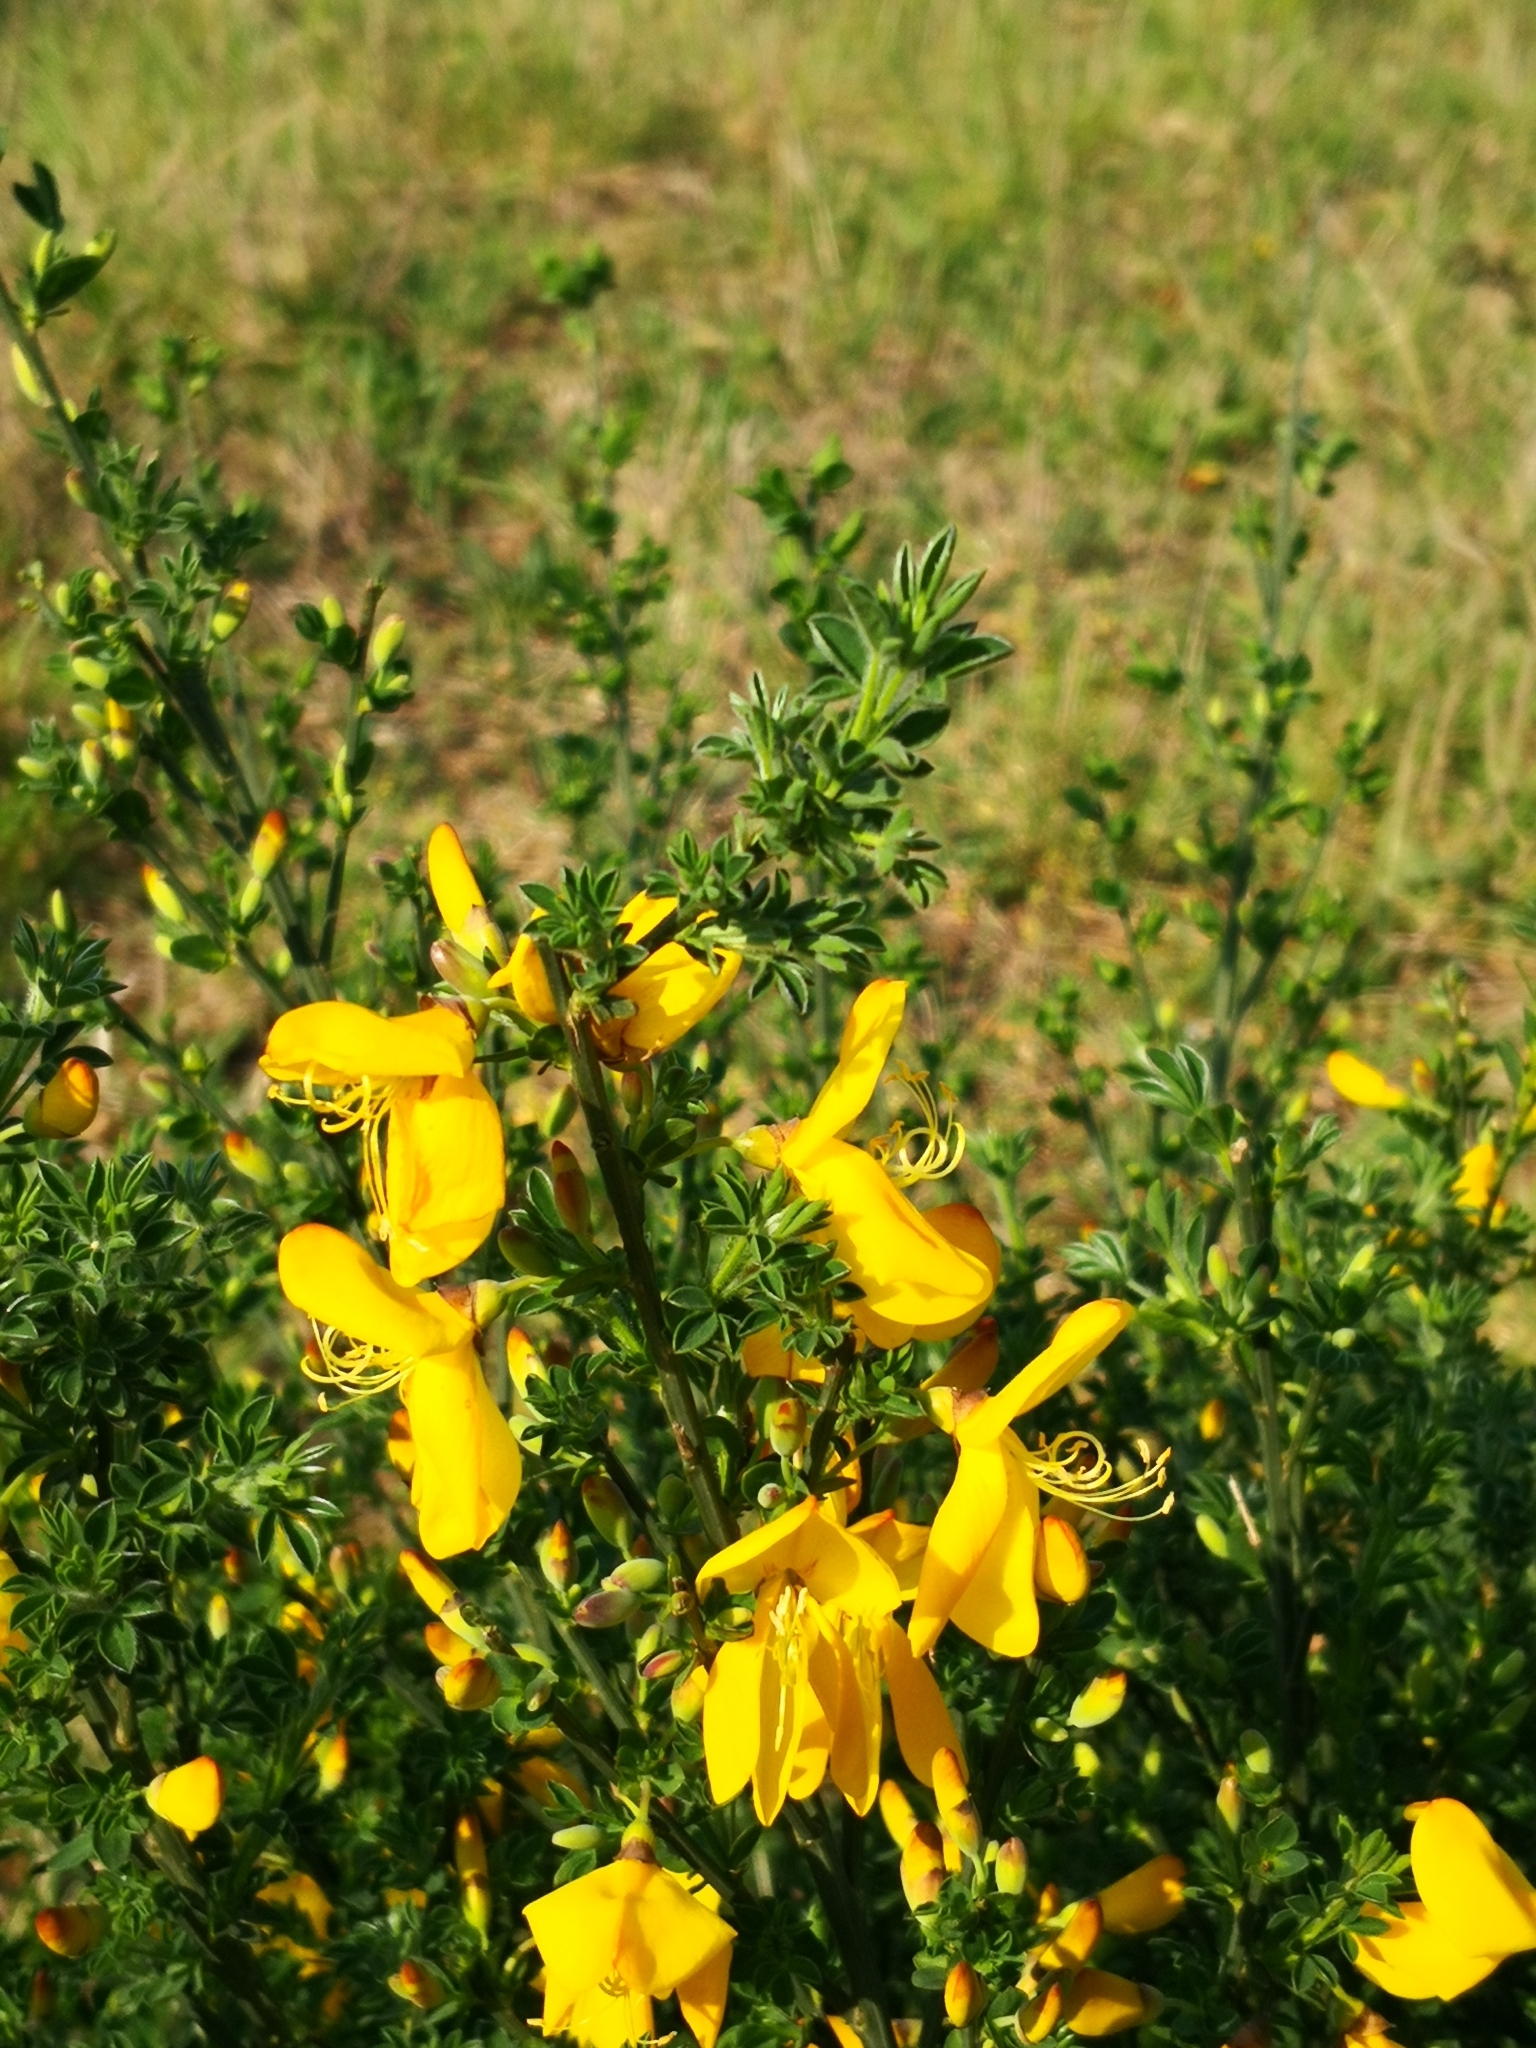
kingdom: Plantae
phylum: Tracheophyta
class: Magnoliopsida
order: Fabales
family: Fabaceae
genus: Cytisus
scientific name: Cytisus scoparius
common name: Scotch broom
